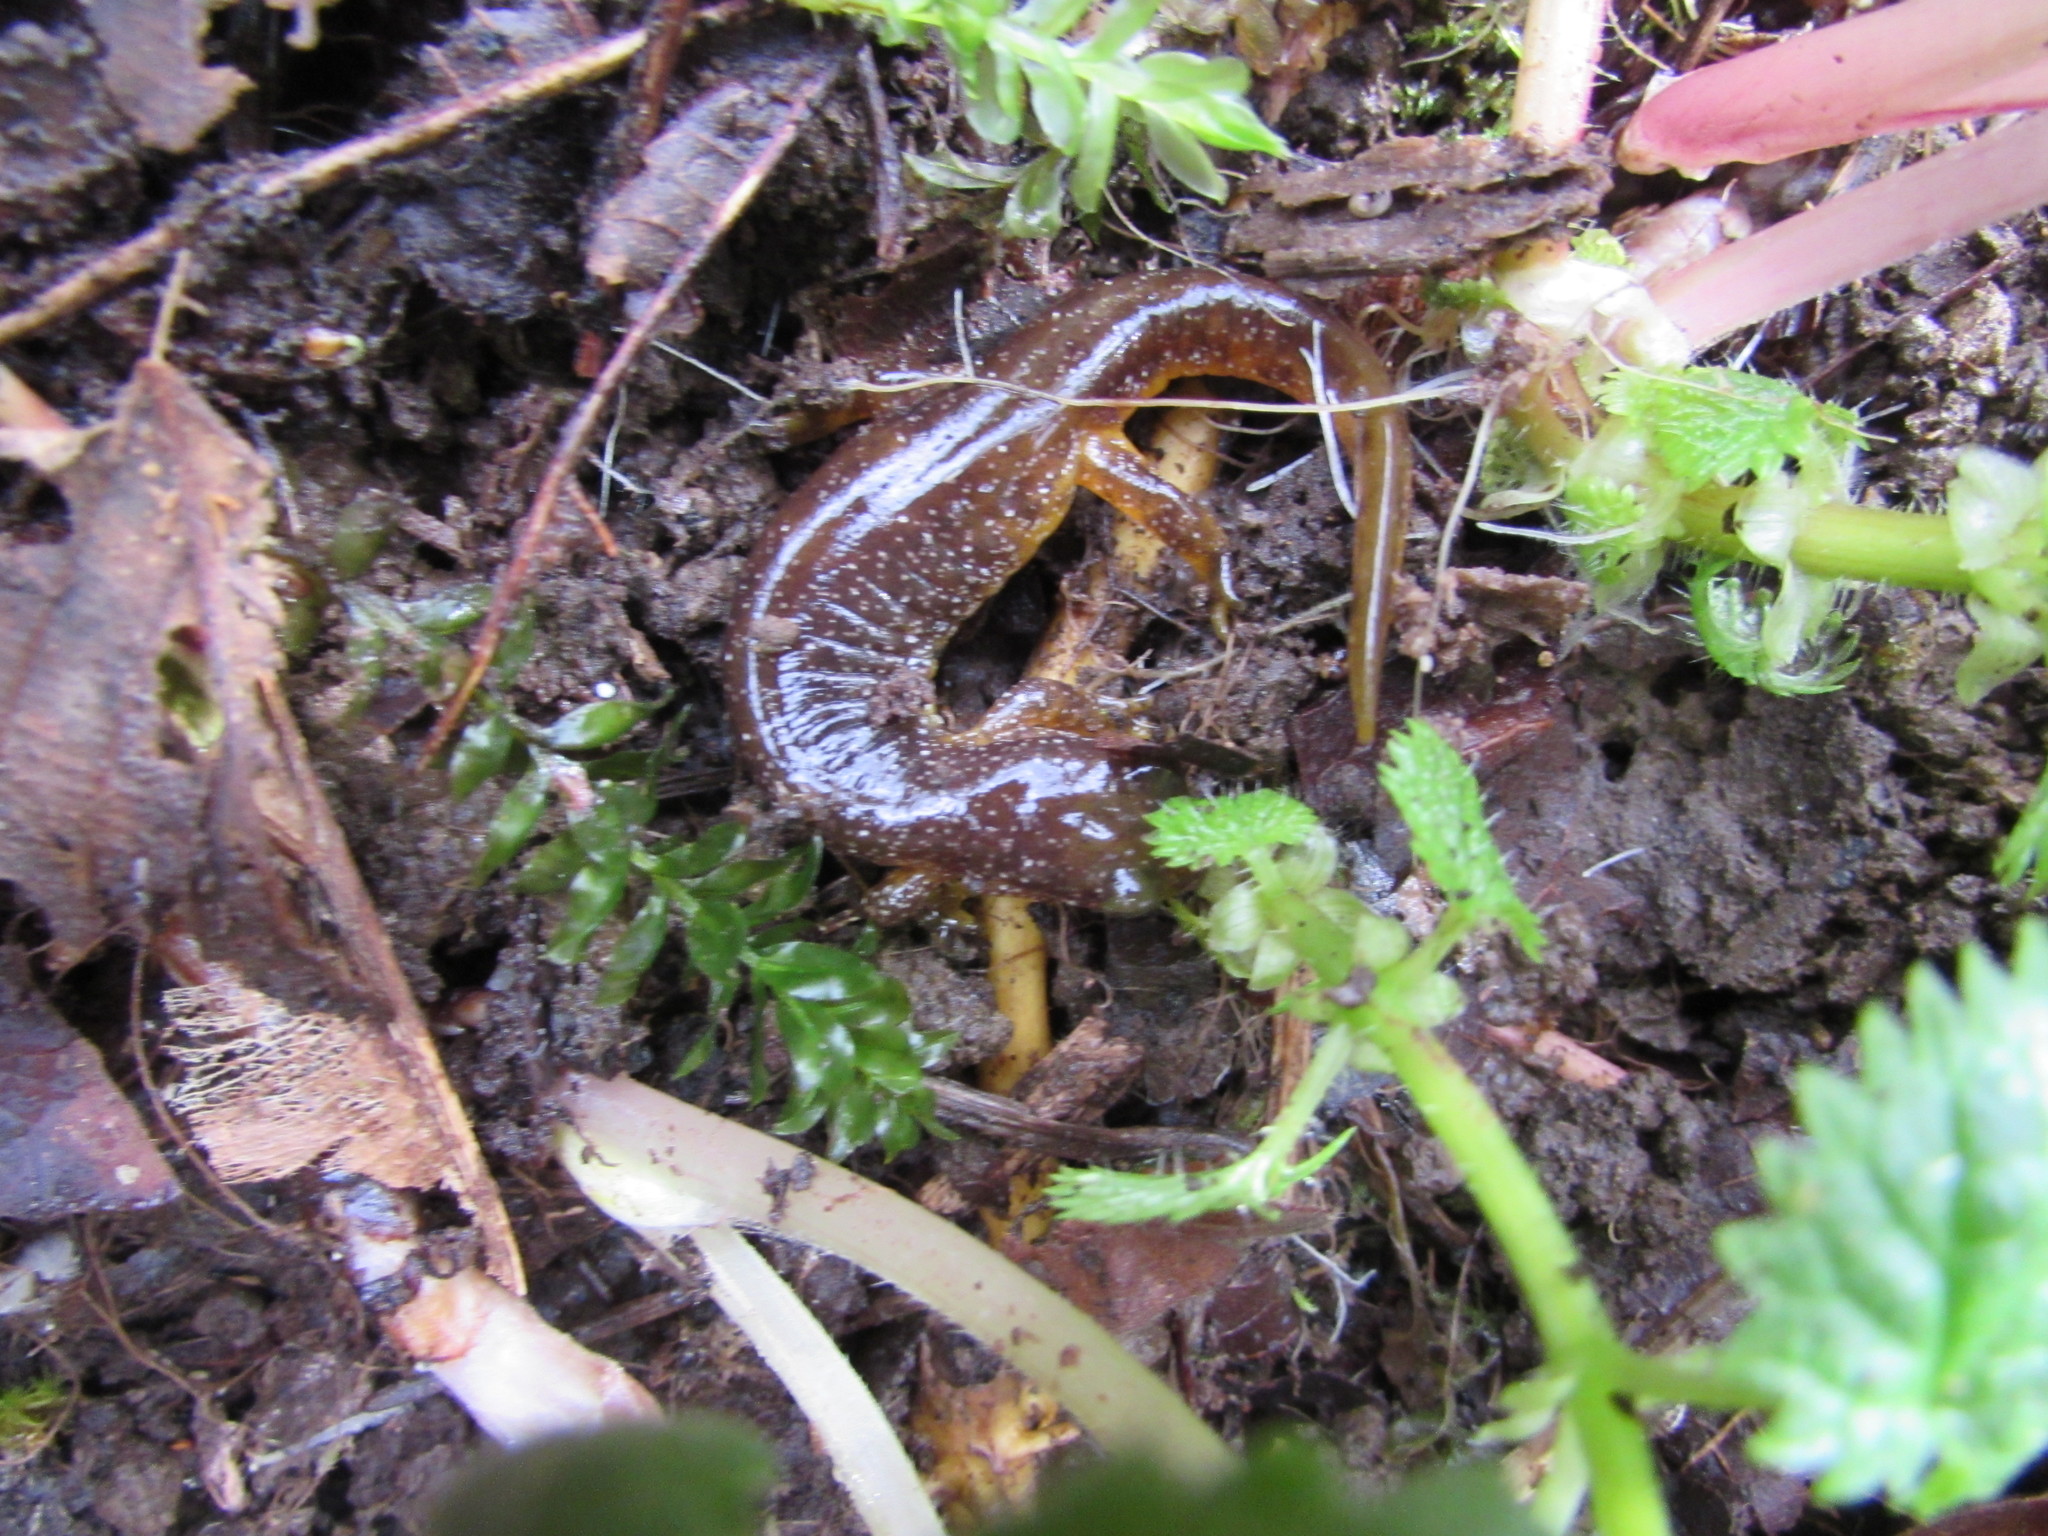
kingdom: Animalia
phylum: Chordata
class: Amphibia
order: Caudata
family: Rhyacotritonidae
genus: Rhyacotriton
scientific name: Rhyacotriton kezeri
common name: Columbia torrent salamander
